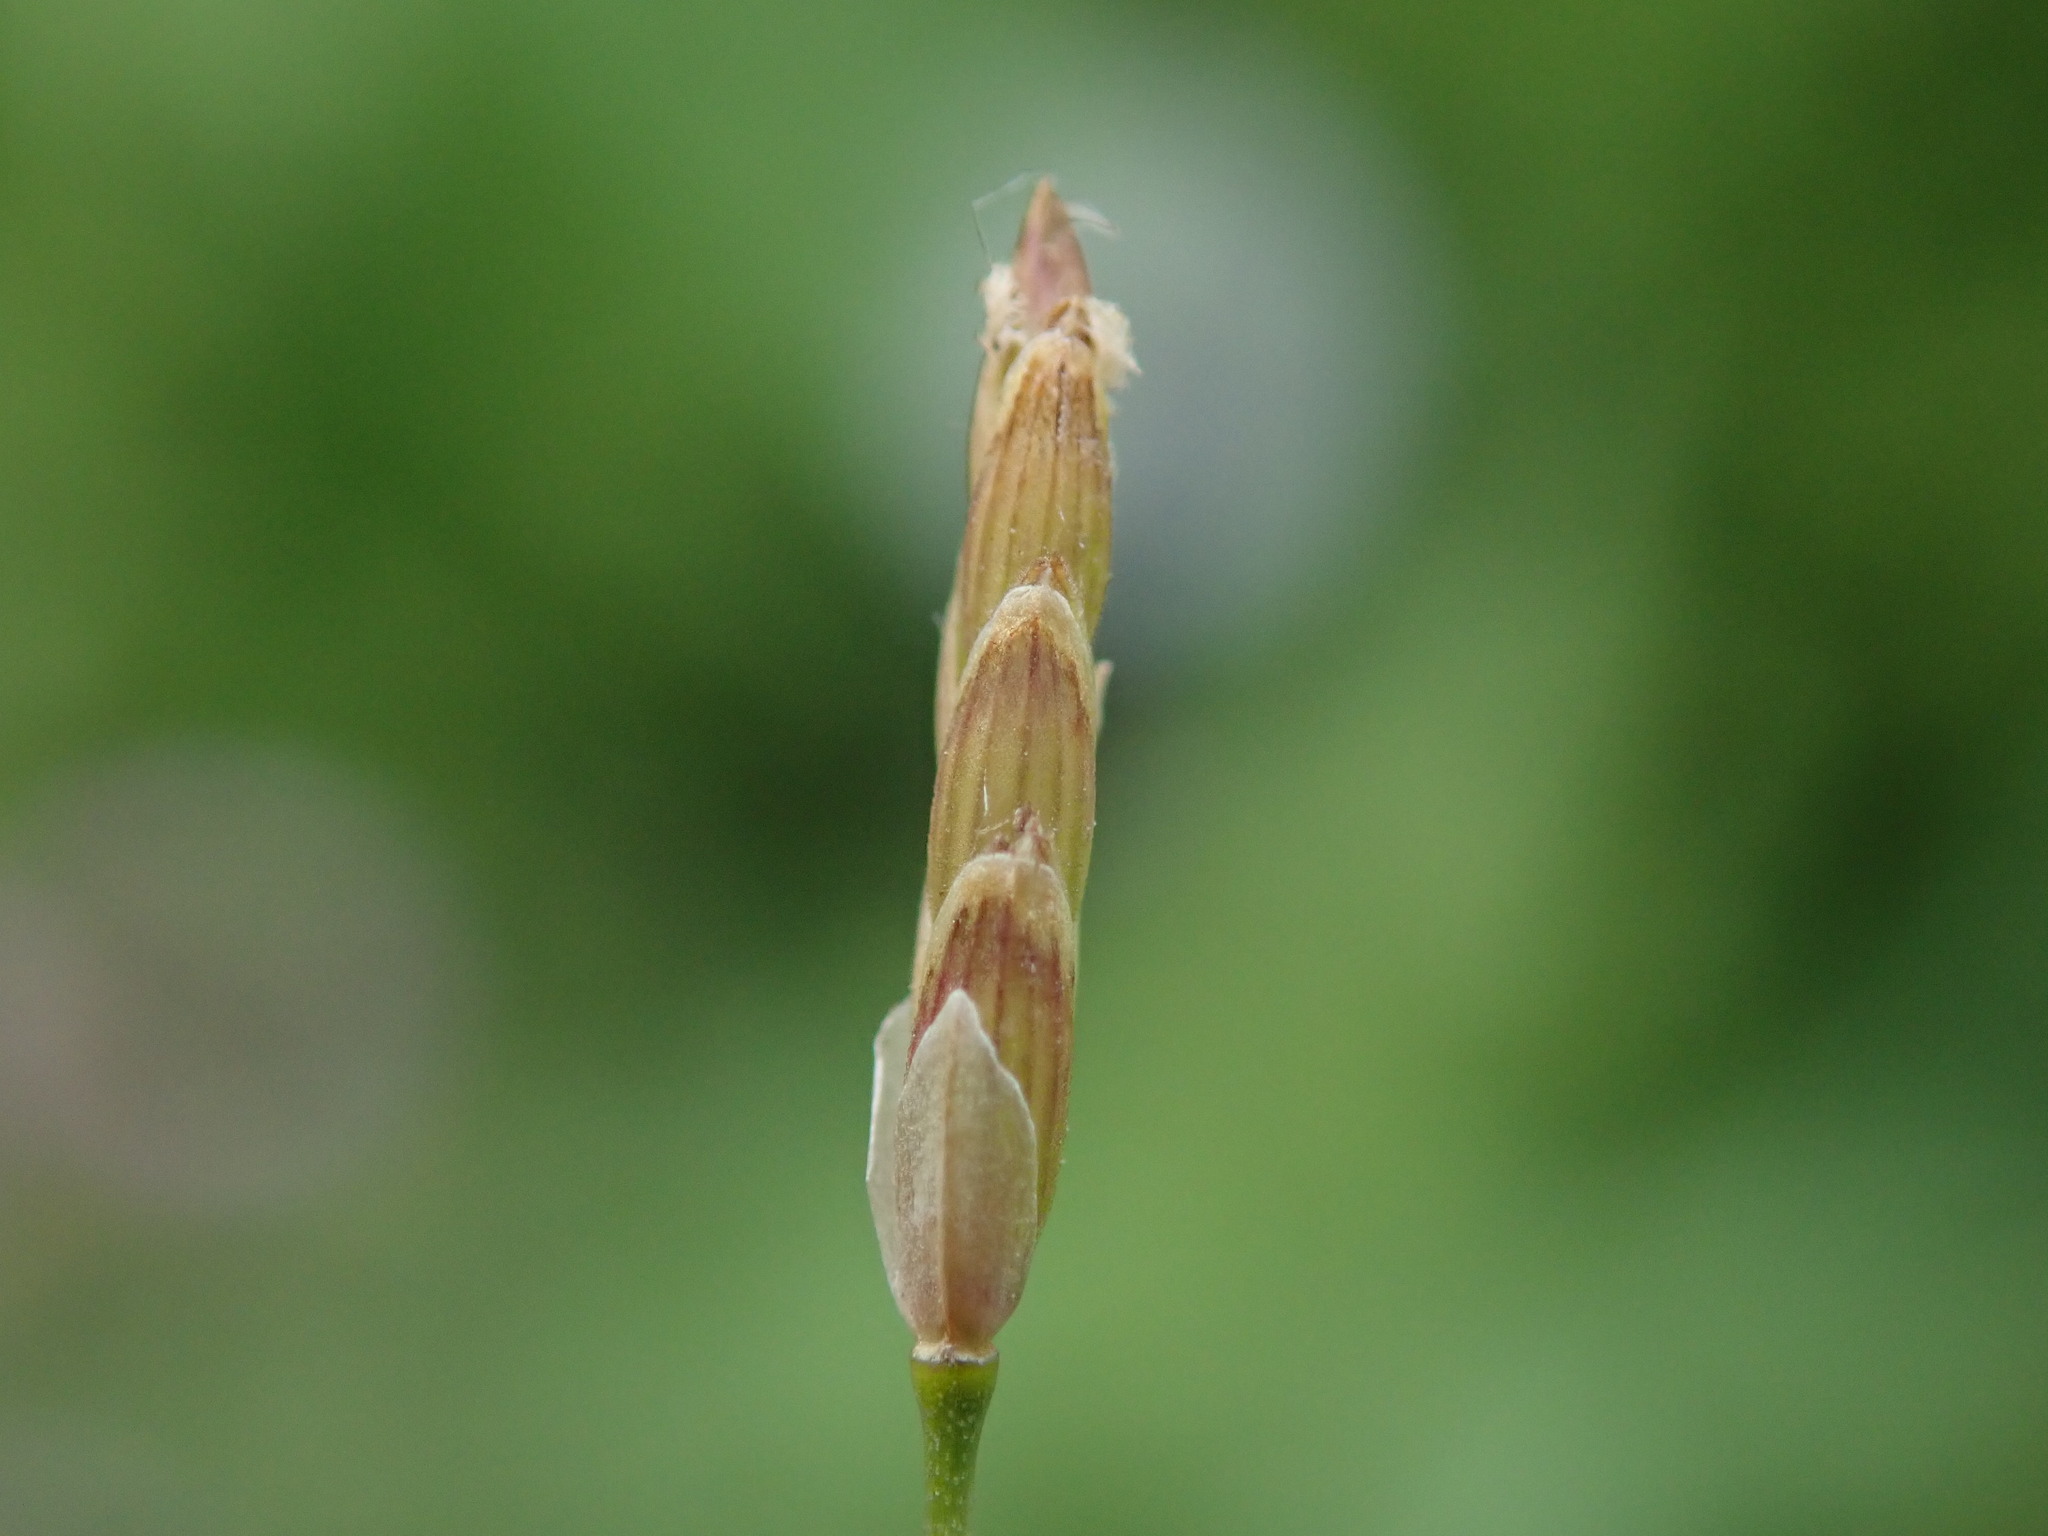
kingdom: Plantae
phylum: Tracheophyta
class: Liliopsida
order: Poales
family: Poaceae
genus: Glyceria
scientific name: Glyceria maxima
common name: Reed mannagrass
